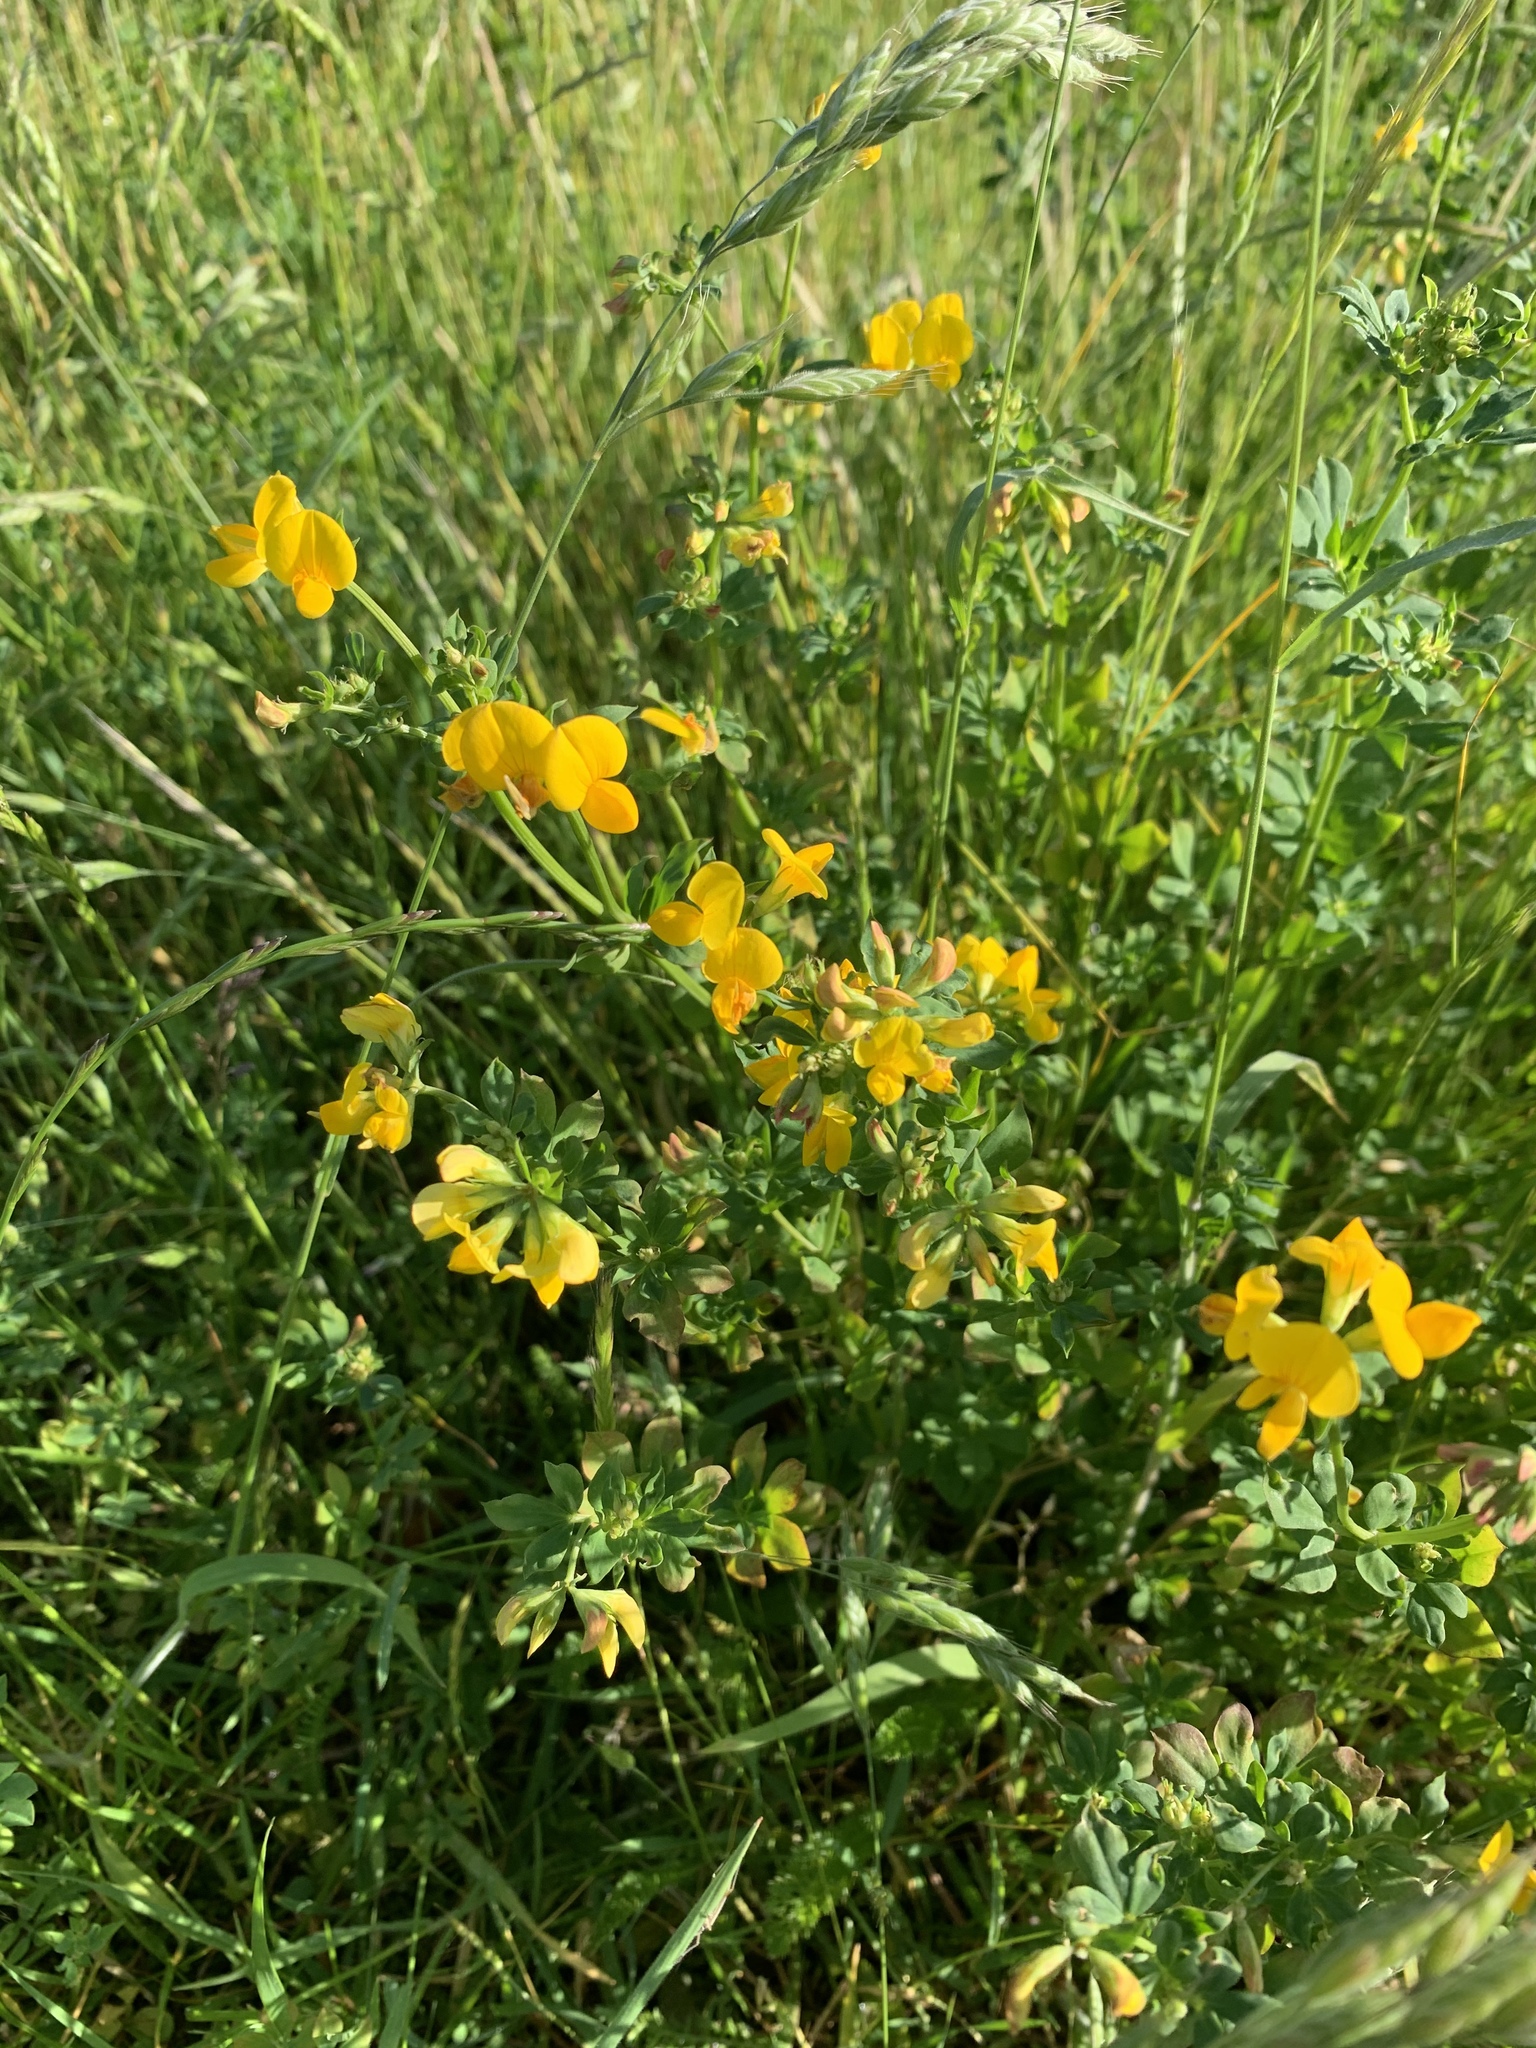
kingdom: Plantae
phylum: Tracheophyta
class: Magnoliopsida
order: Fabales
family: Fabaceae
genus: Lotus
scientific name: Lotus corniculatus
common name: Common bird's-foot-trefoil
